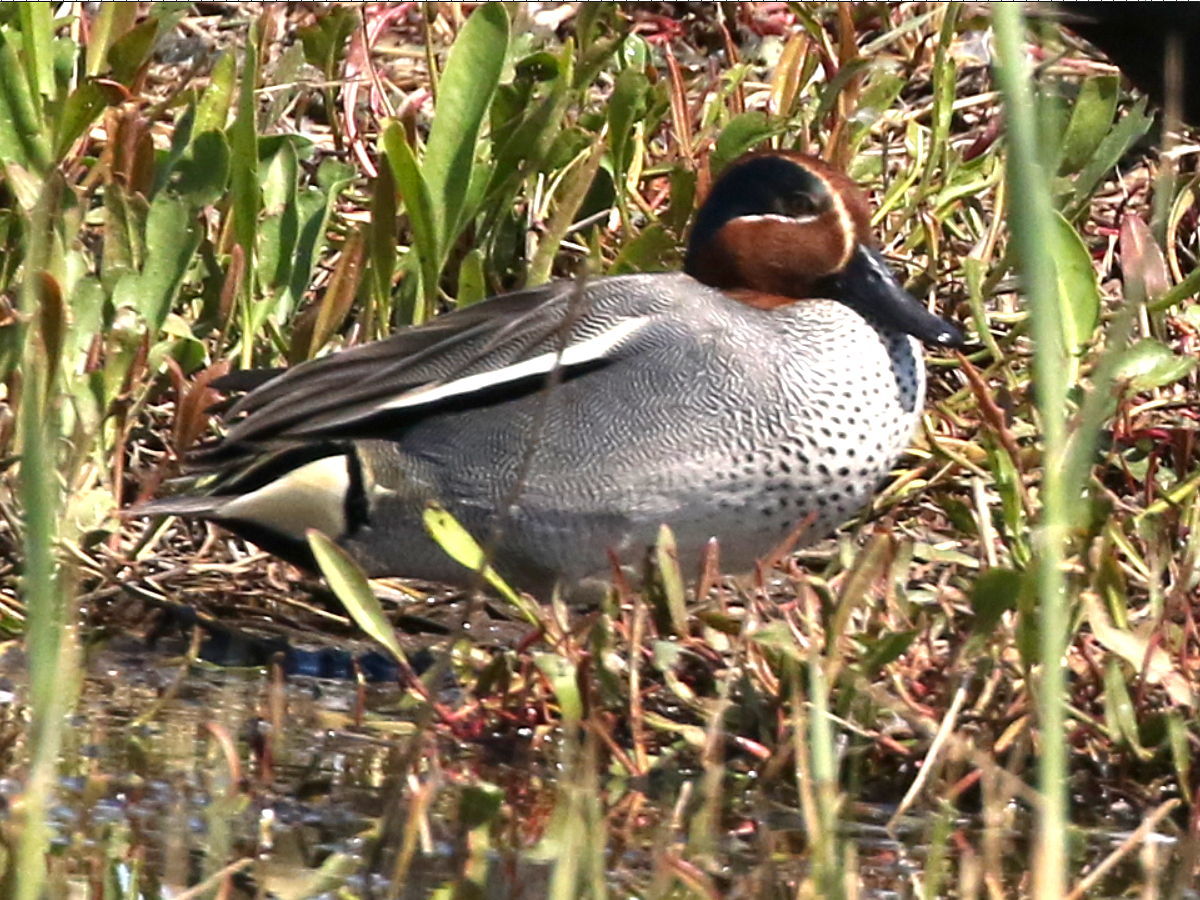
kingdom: Animalia
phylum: Chordata
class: Aves
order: Anseriformes
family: Anatidae
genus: Anas
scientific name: Anas crecca
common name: Eurasian teal
